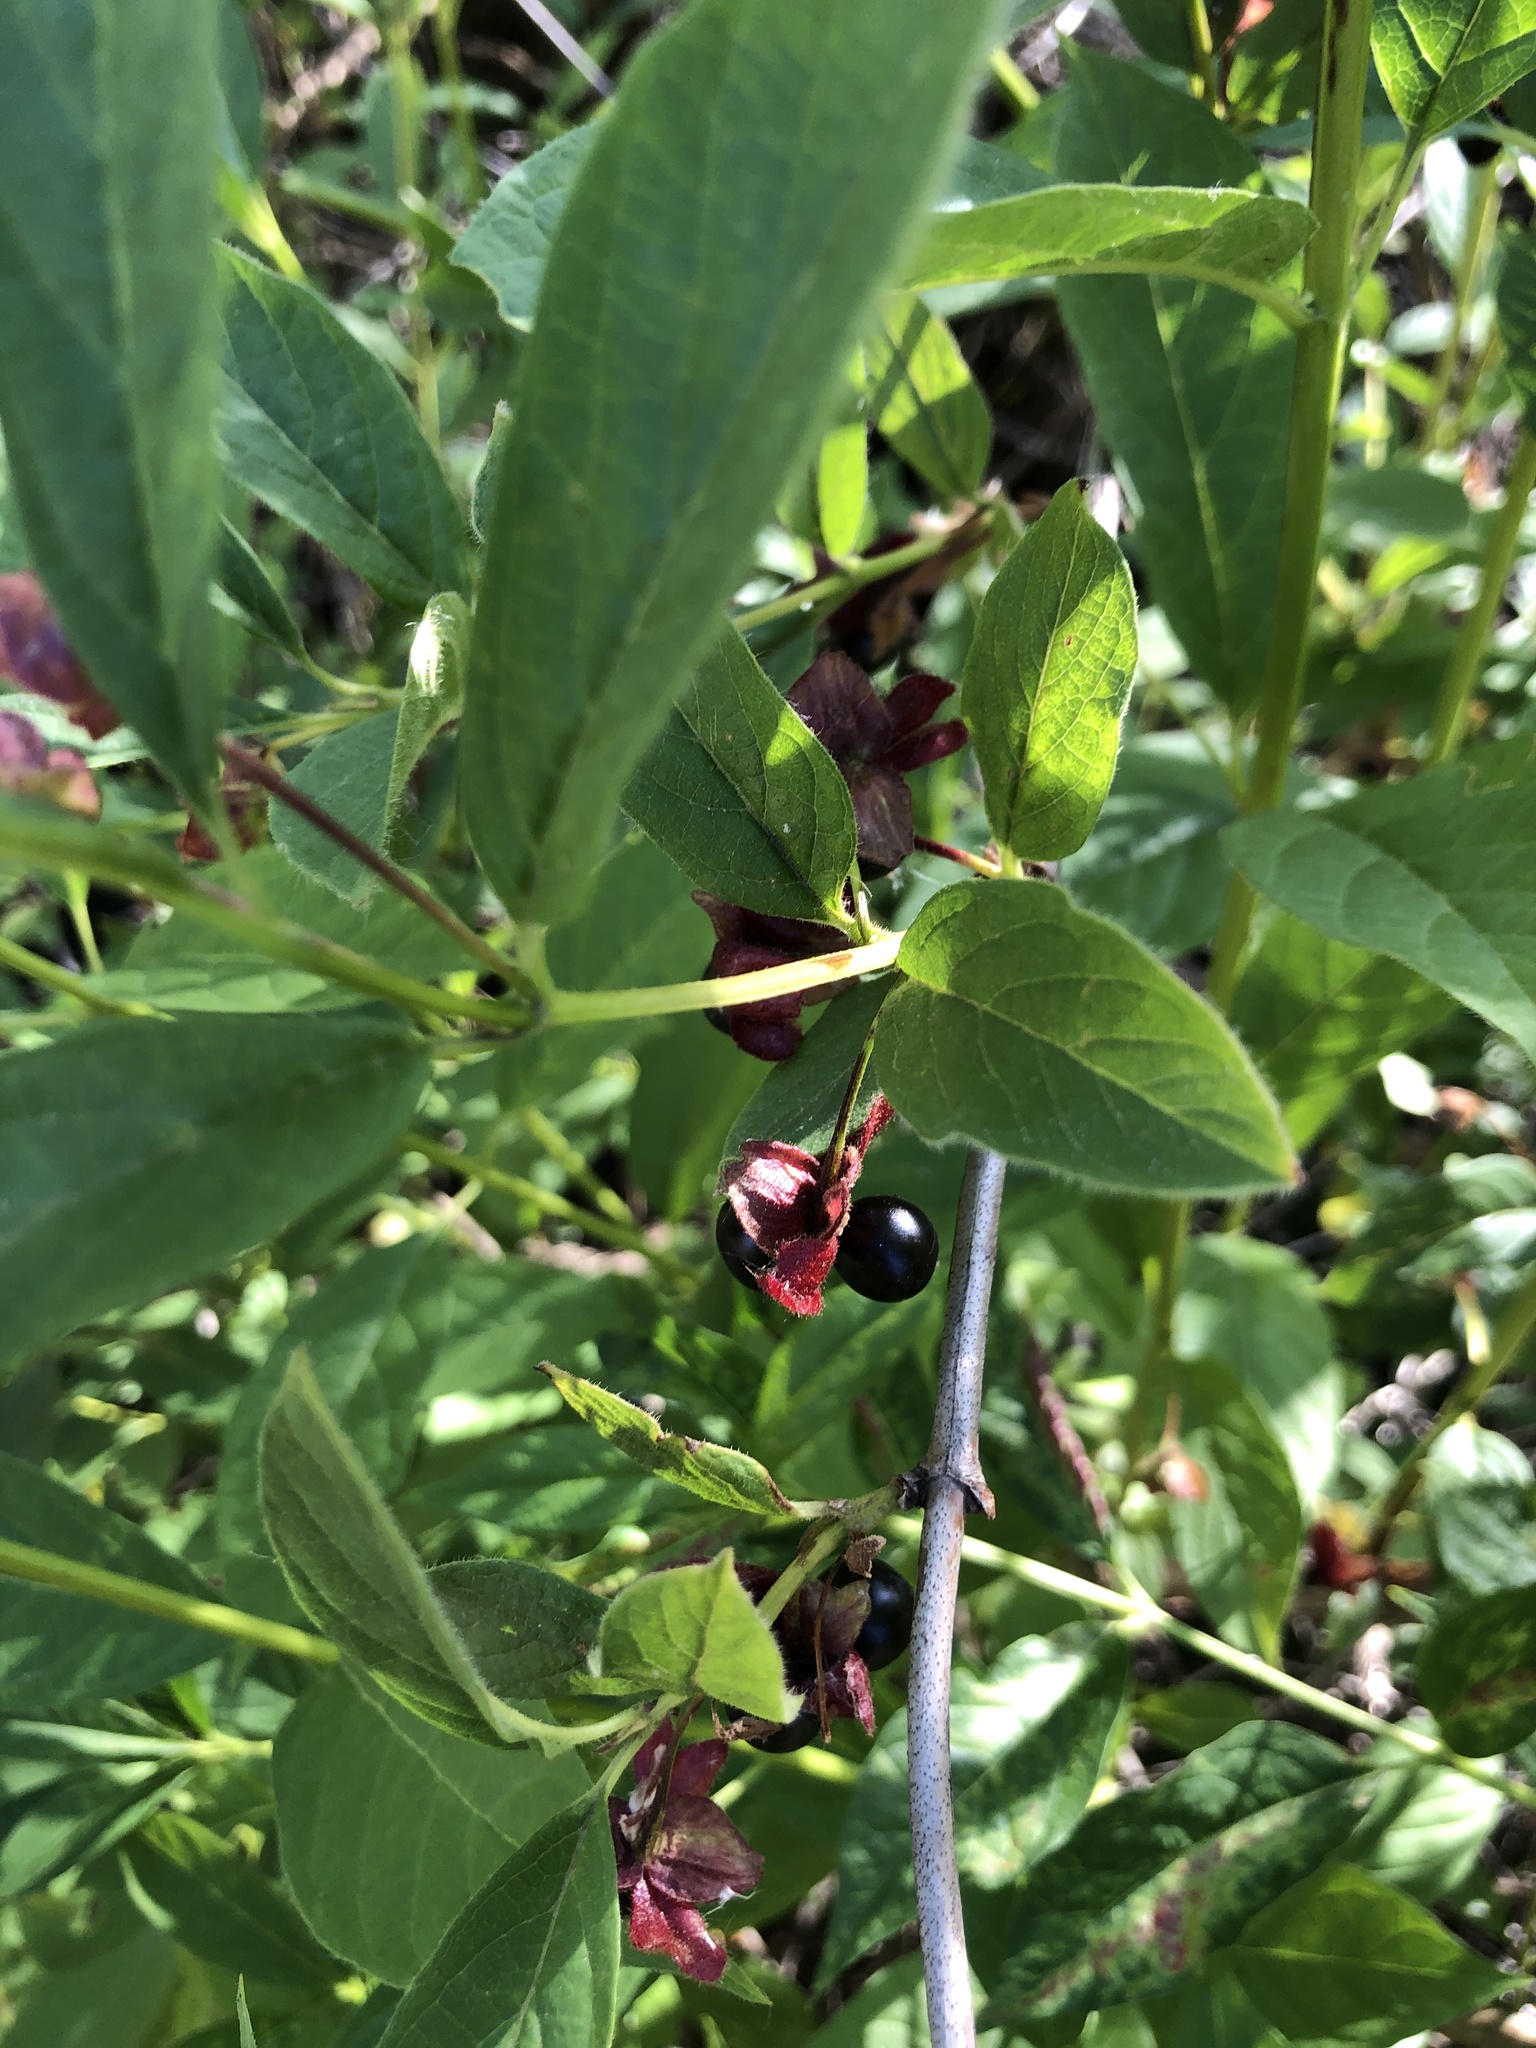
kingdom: Plantae
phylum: Tracheophyta
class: Magnoliopsida
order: Dipsacales
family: Caprifoliaceae
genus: Lonicera
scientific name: Lonicera involucrata
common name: Californian honeysuckle
